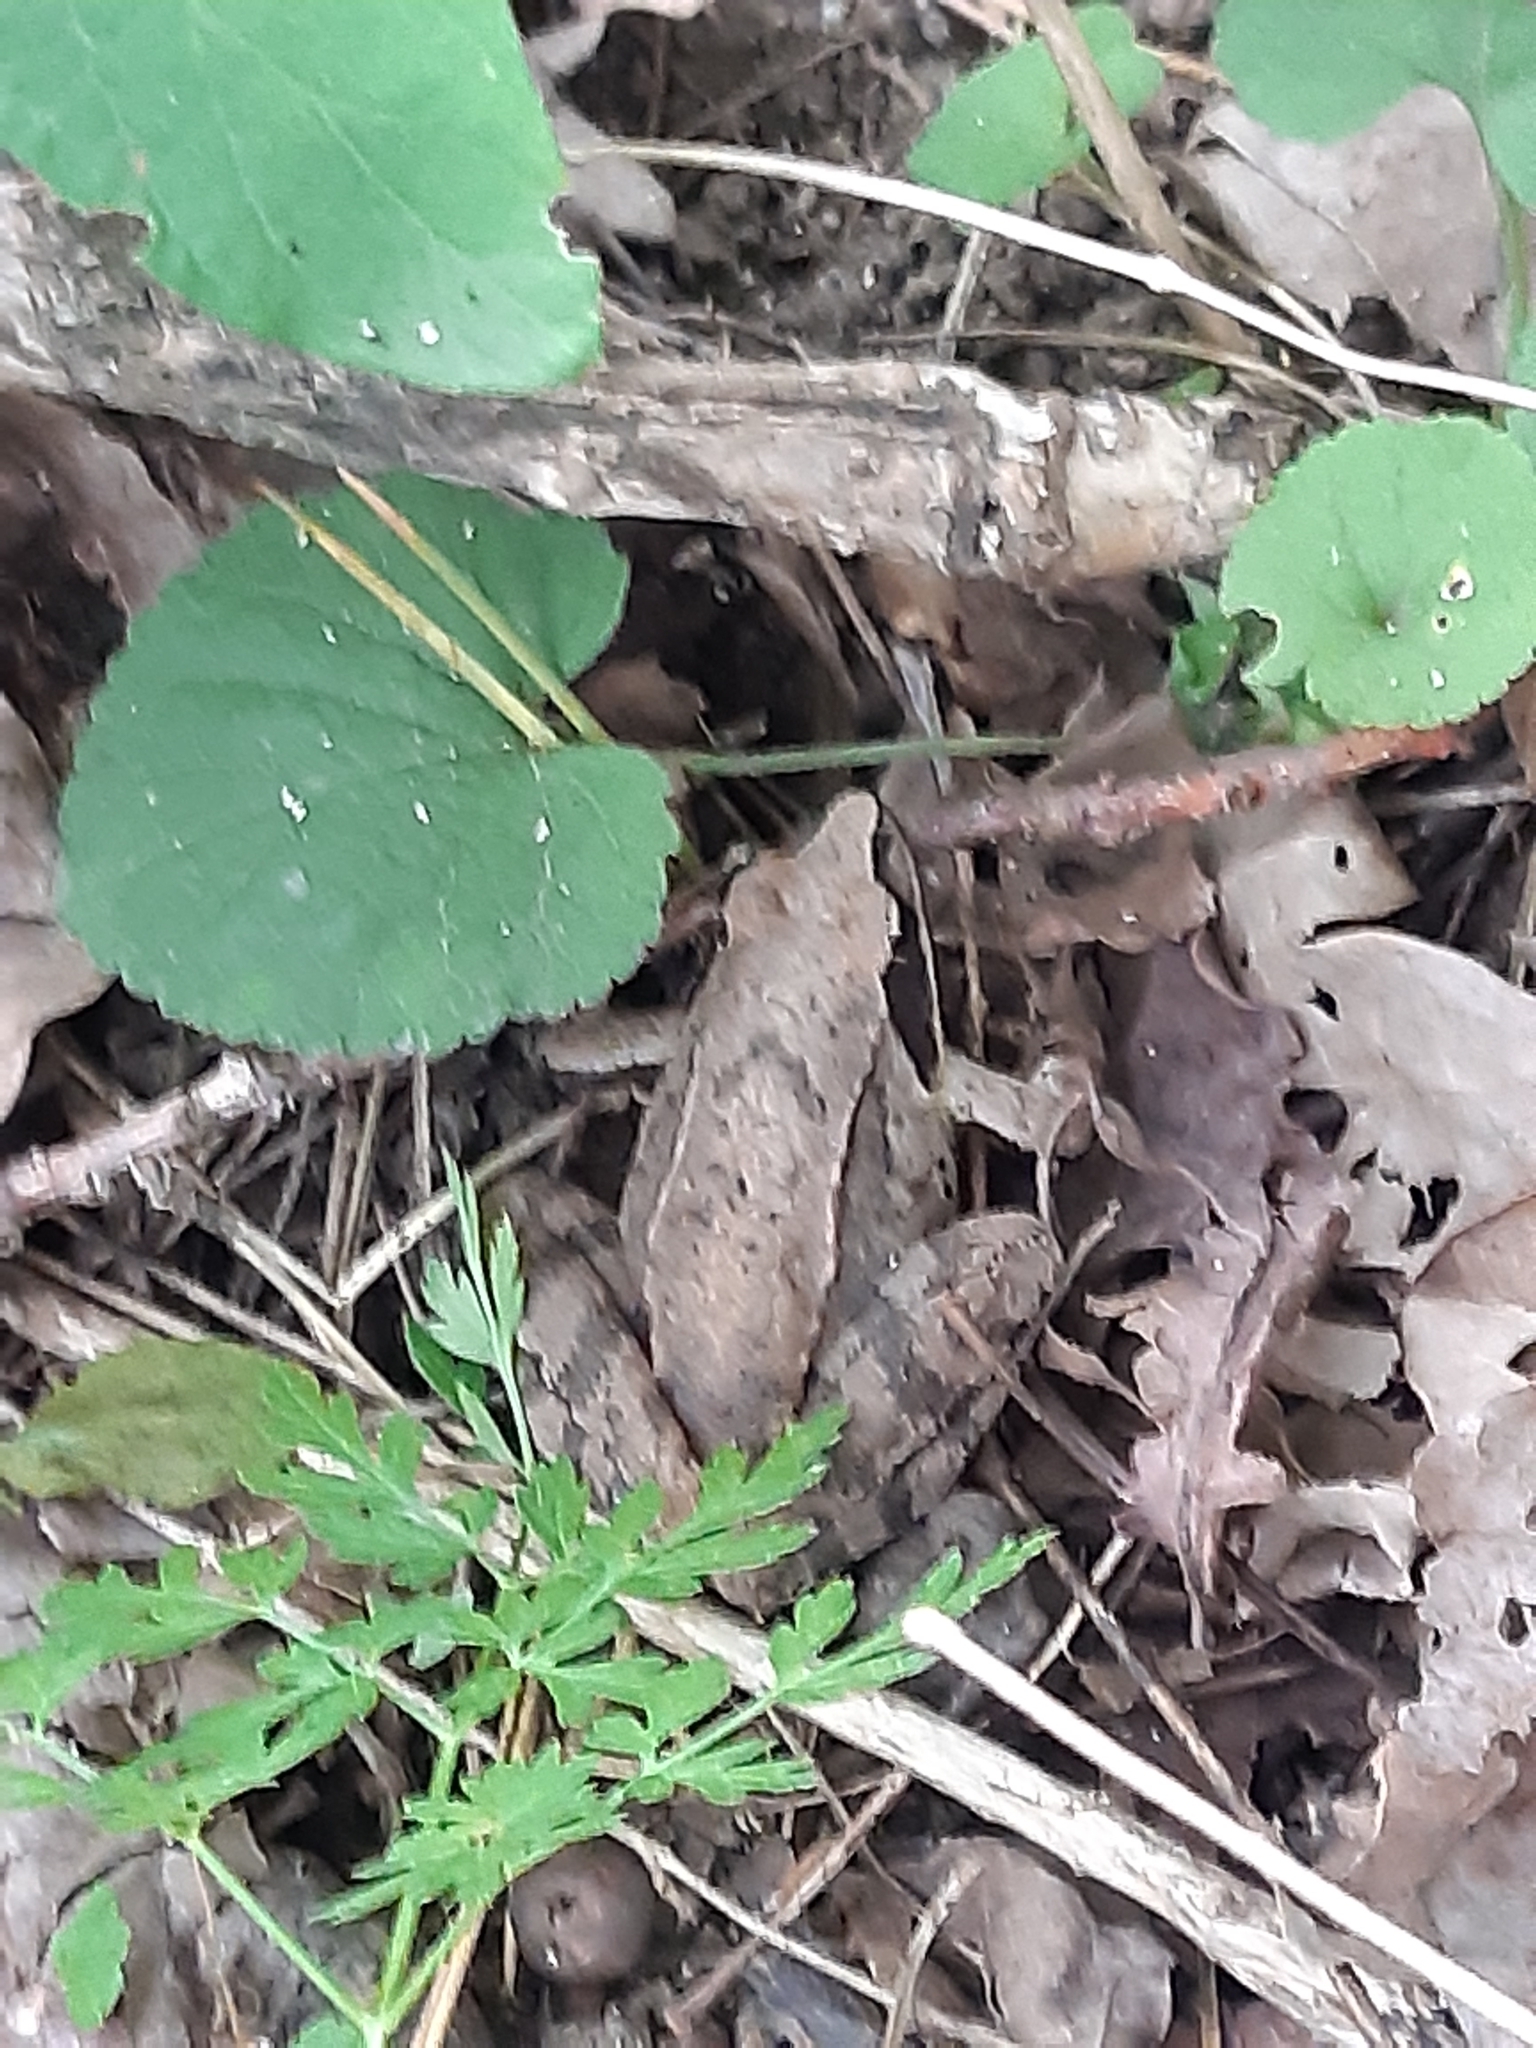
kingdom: Animalia
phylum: Chordata
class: Amphibia
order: Anura
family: Ranidae
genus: Rana
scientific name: Rana dalmatina
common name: Agile frog
